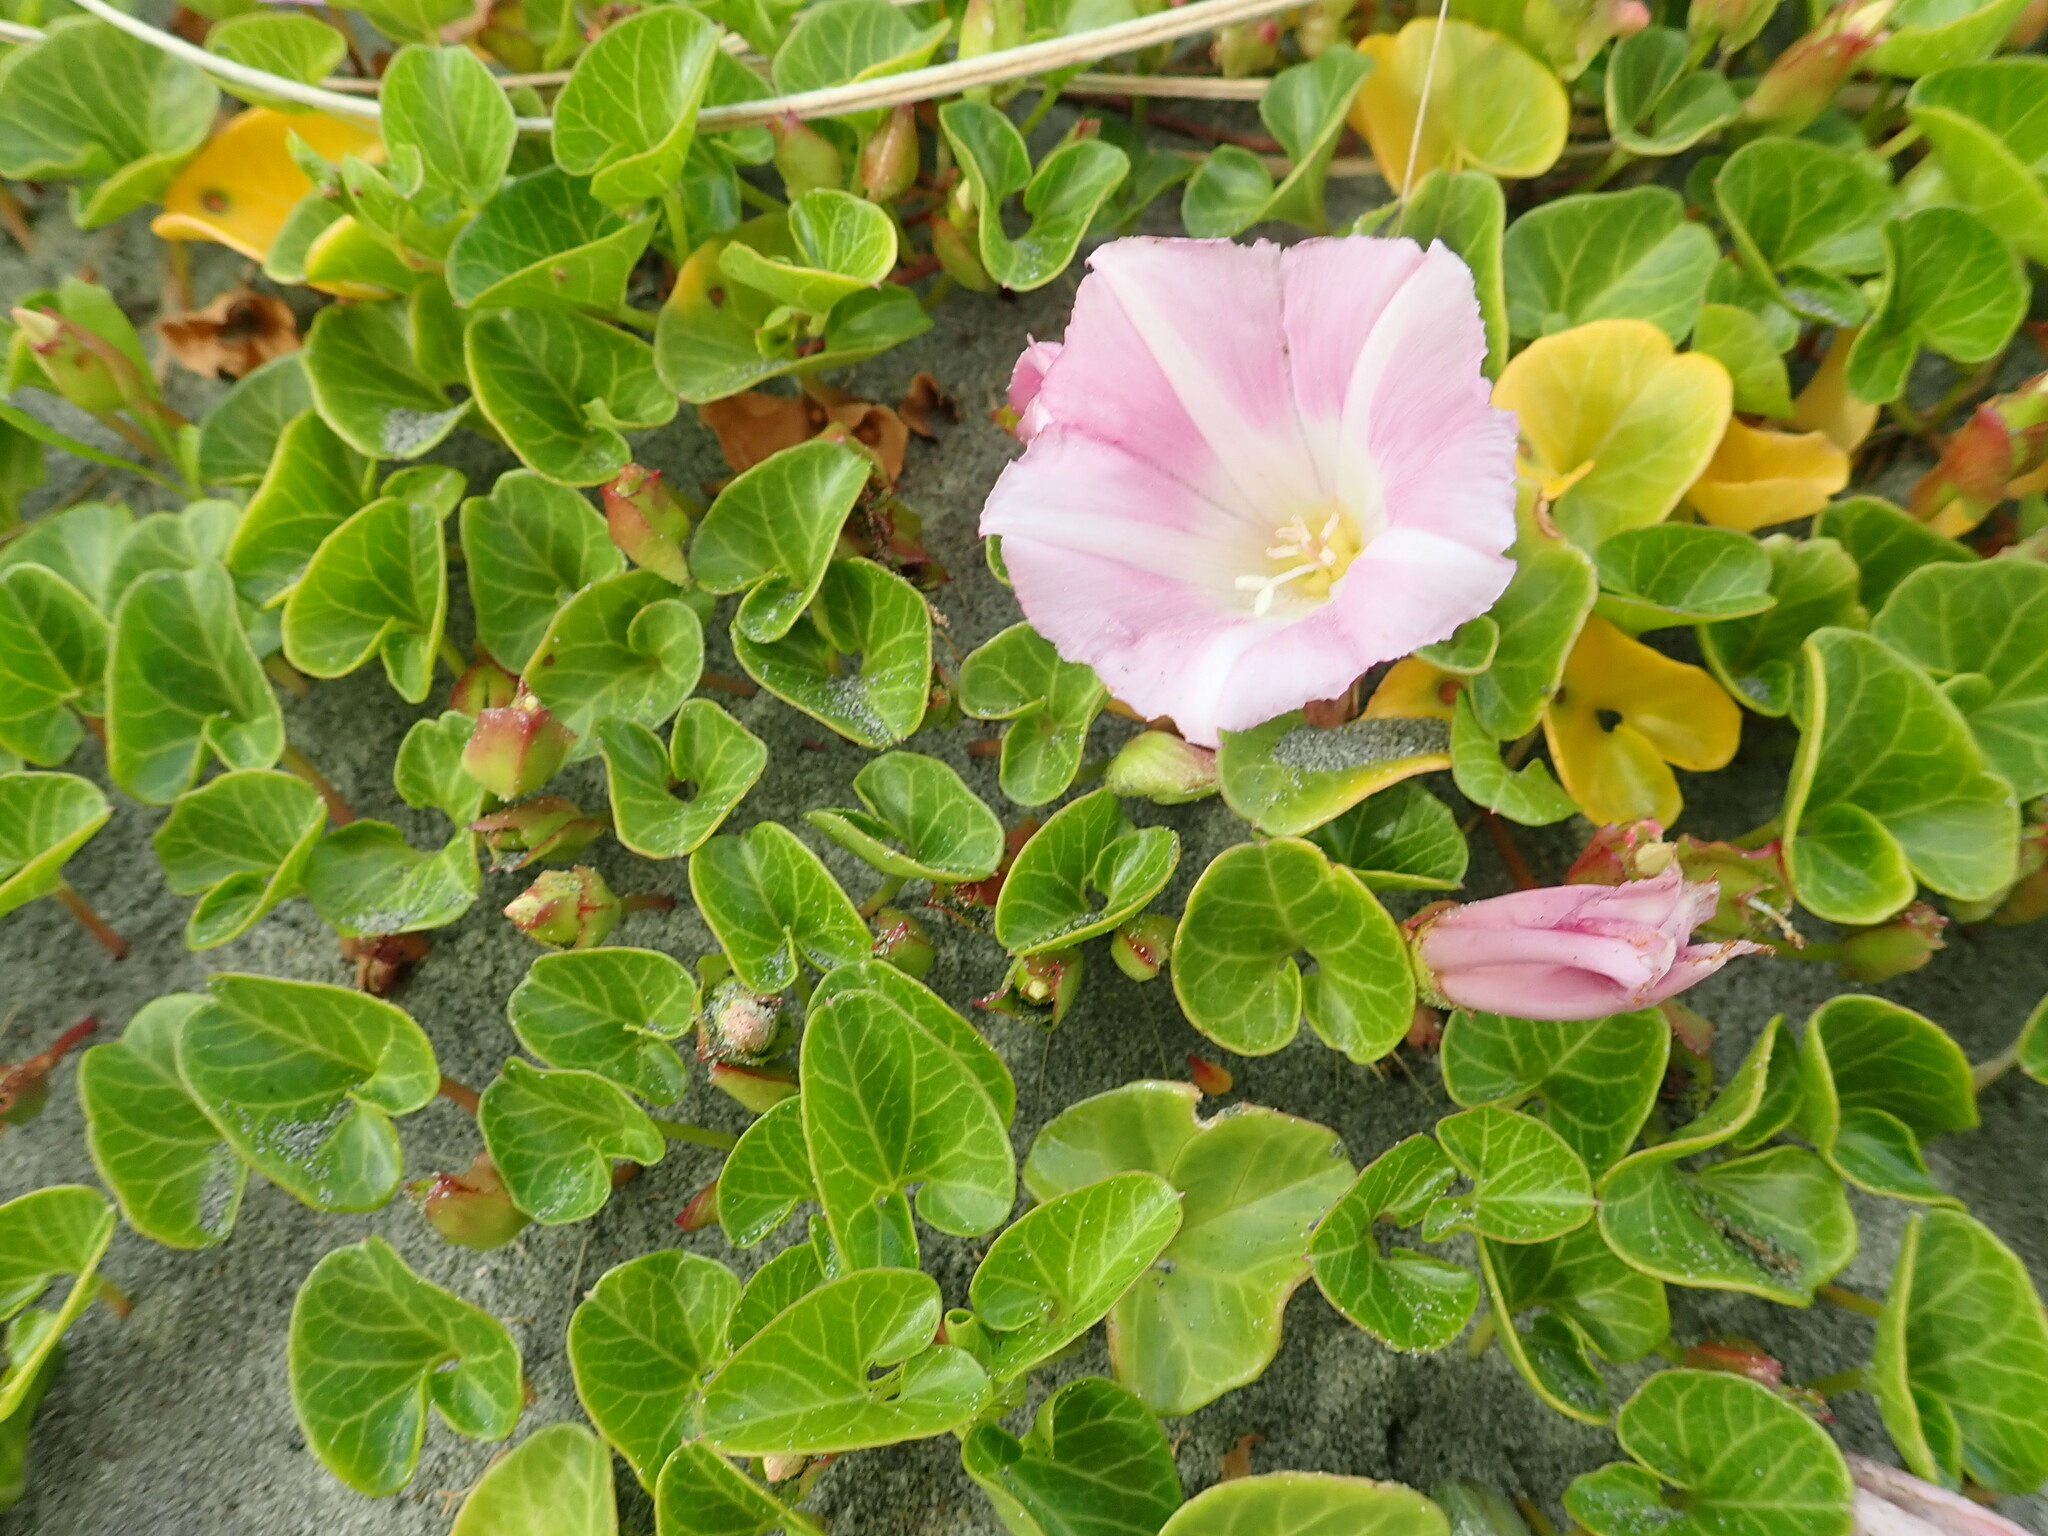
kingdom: Plantae
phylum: Tracheophyta
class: Magnoliopsida
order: Solanales
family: Convolvulaceae
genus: Calystegia
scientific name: Calystegia soldanella
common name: Sea bindweed
